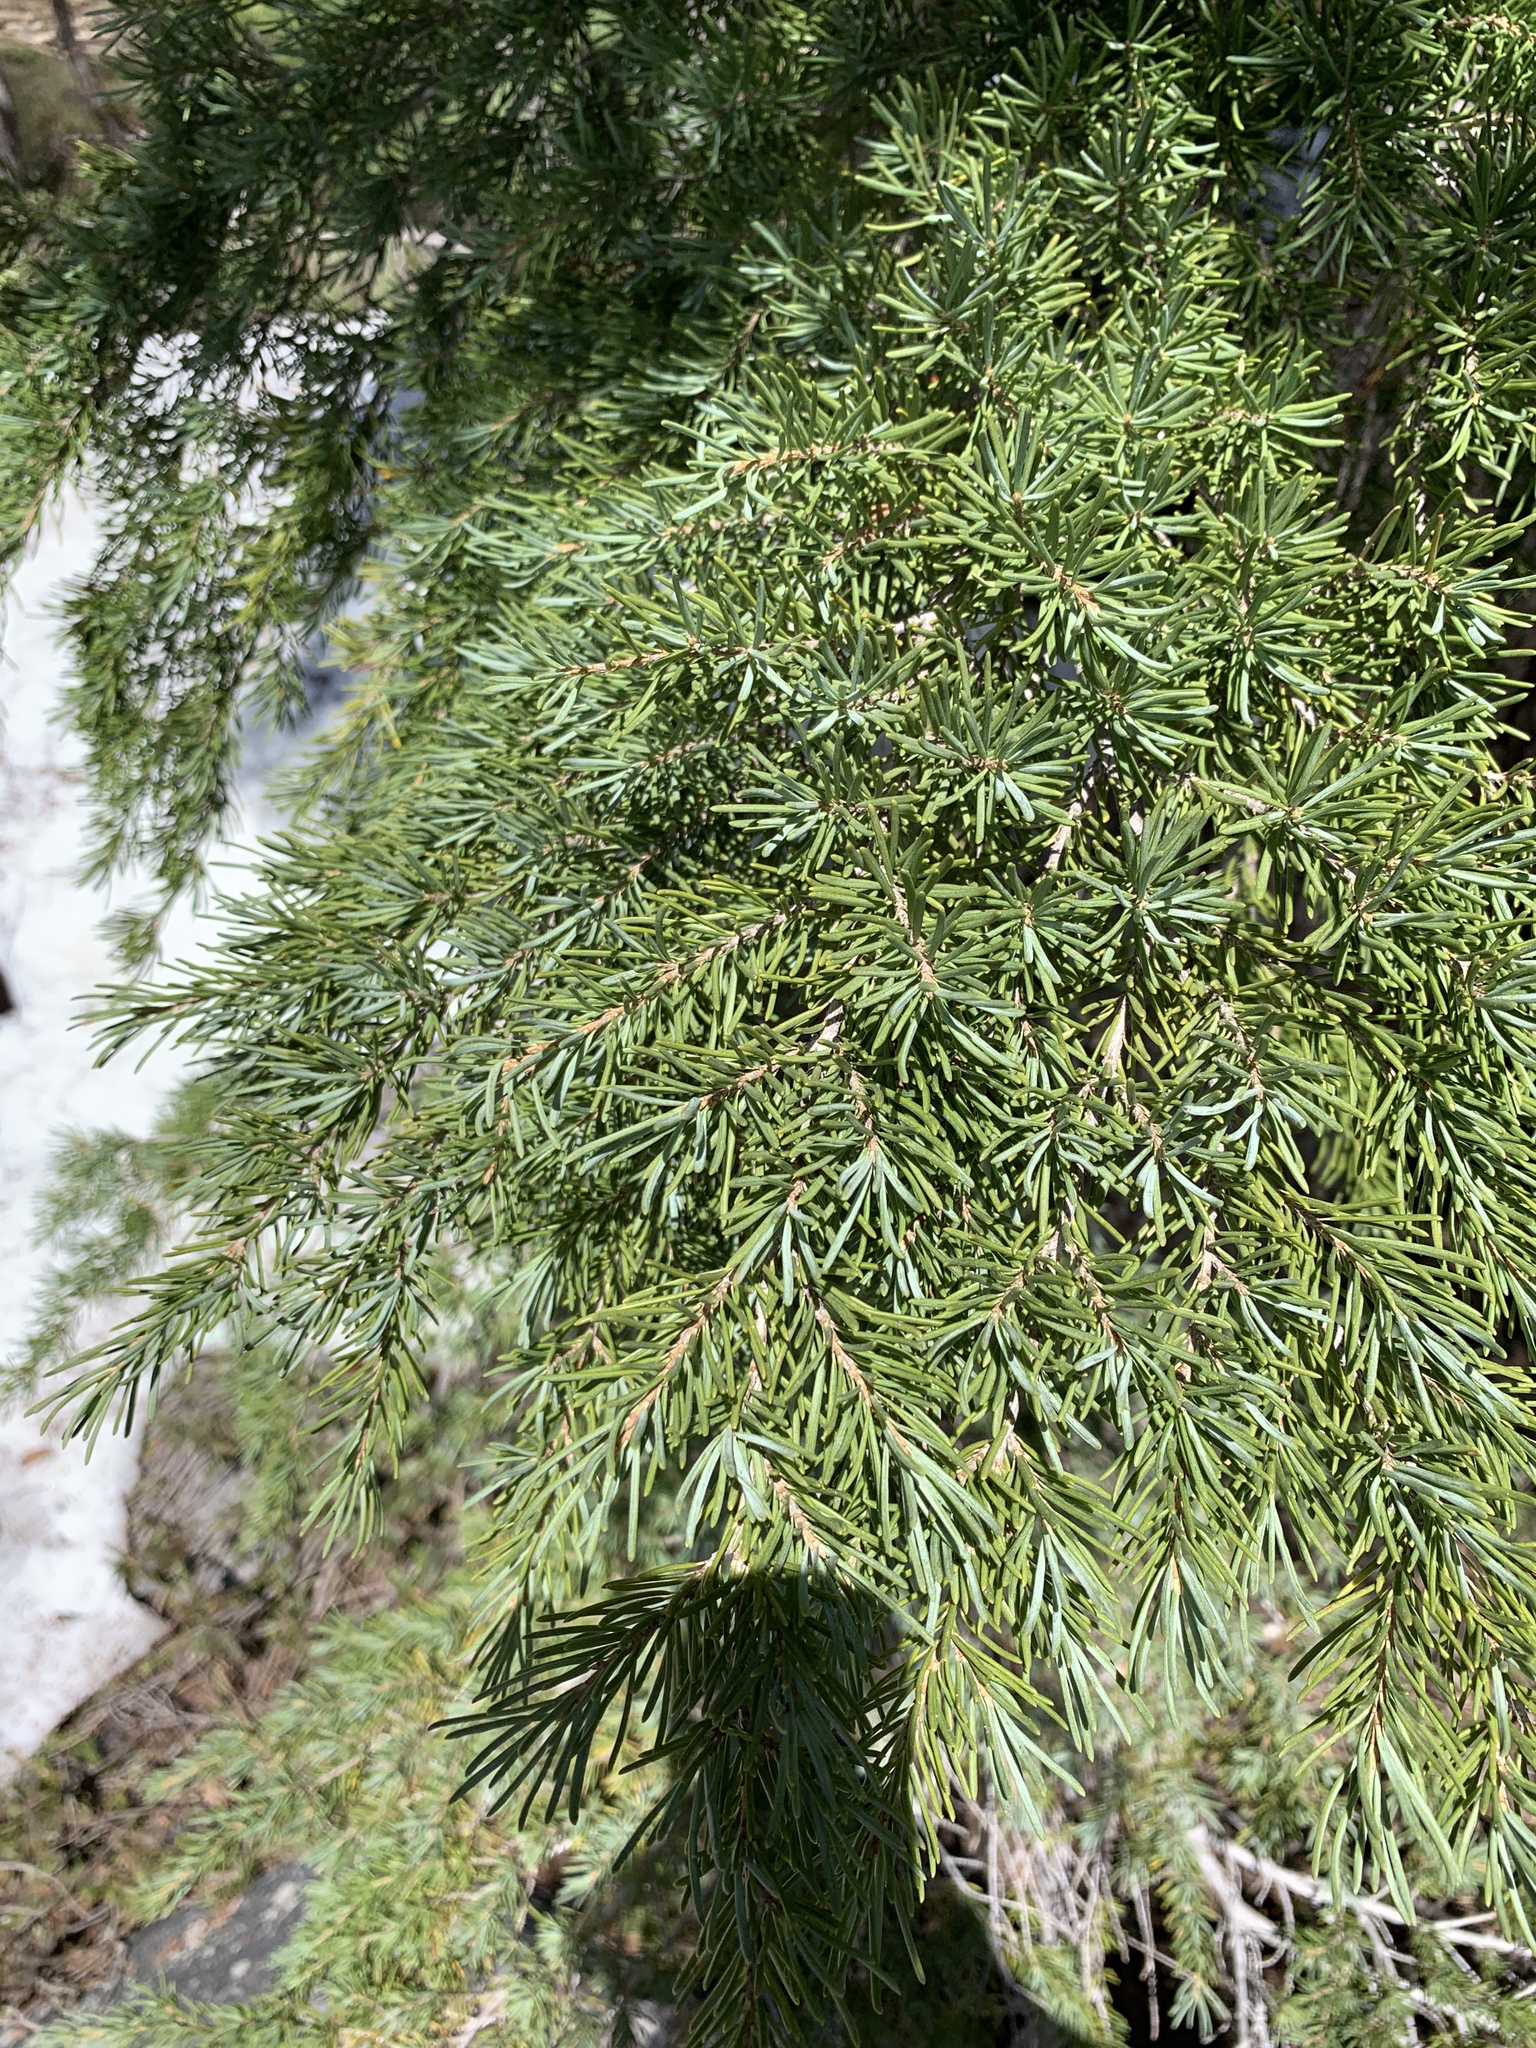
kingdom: Plantae
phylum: Tracheophyta
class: Pinopsida
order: Pinales
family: Pinaceae
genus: Tsuga
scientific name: Tsuga mertensiana
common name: Mountain hemlock
